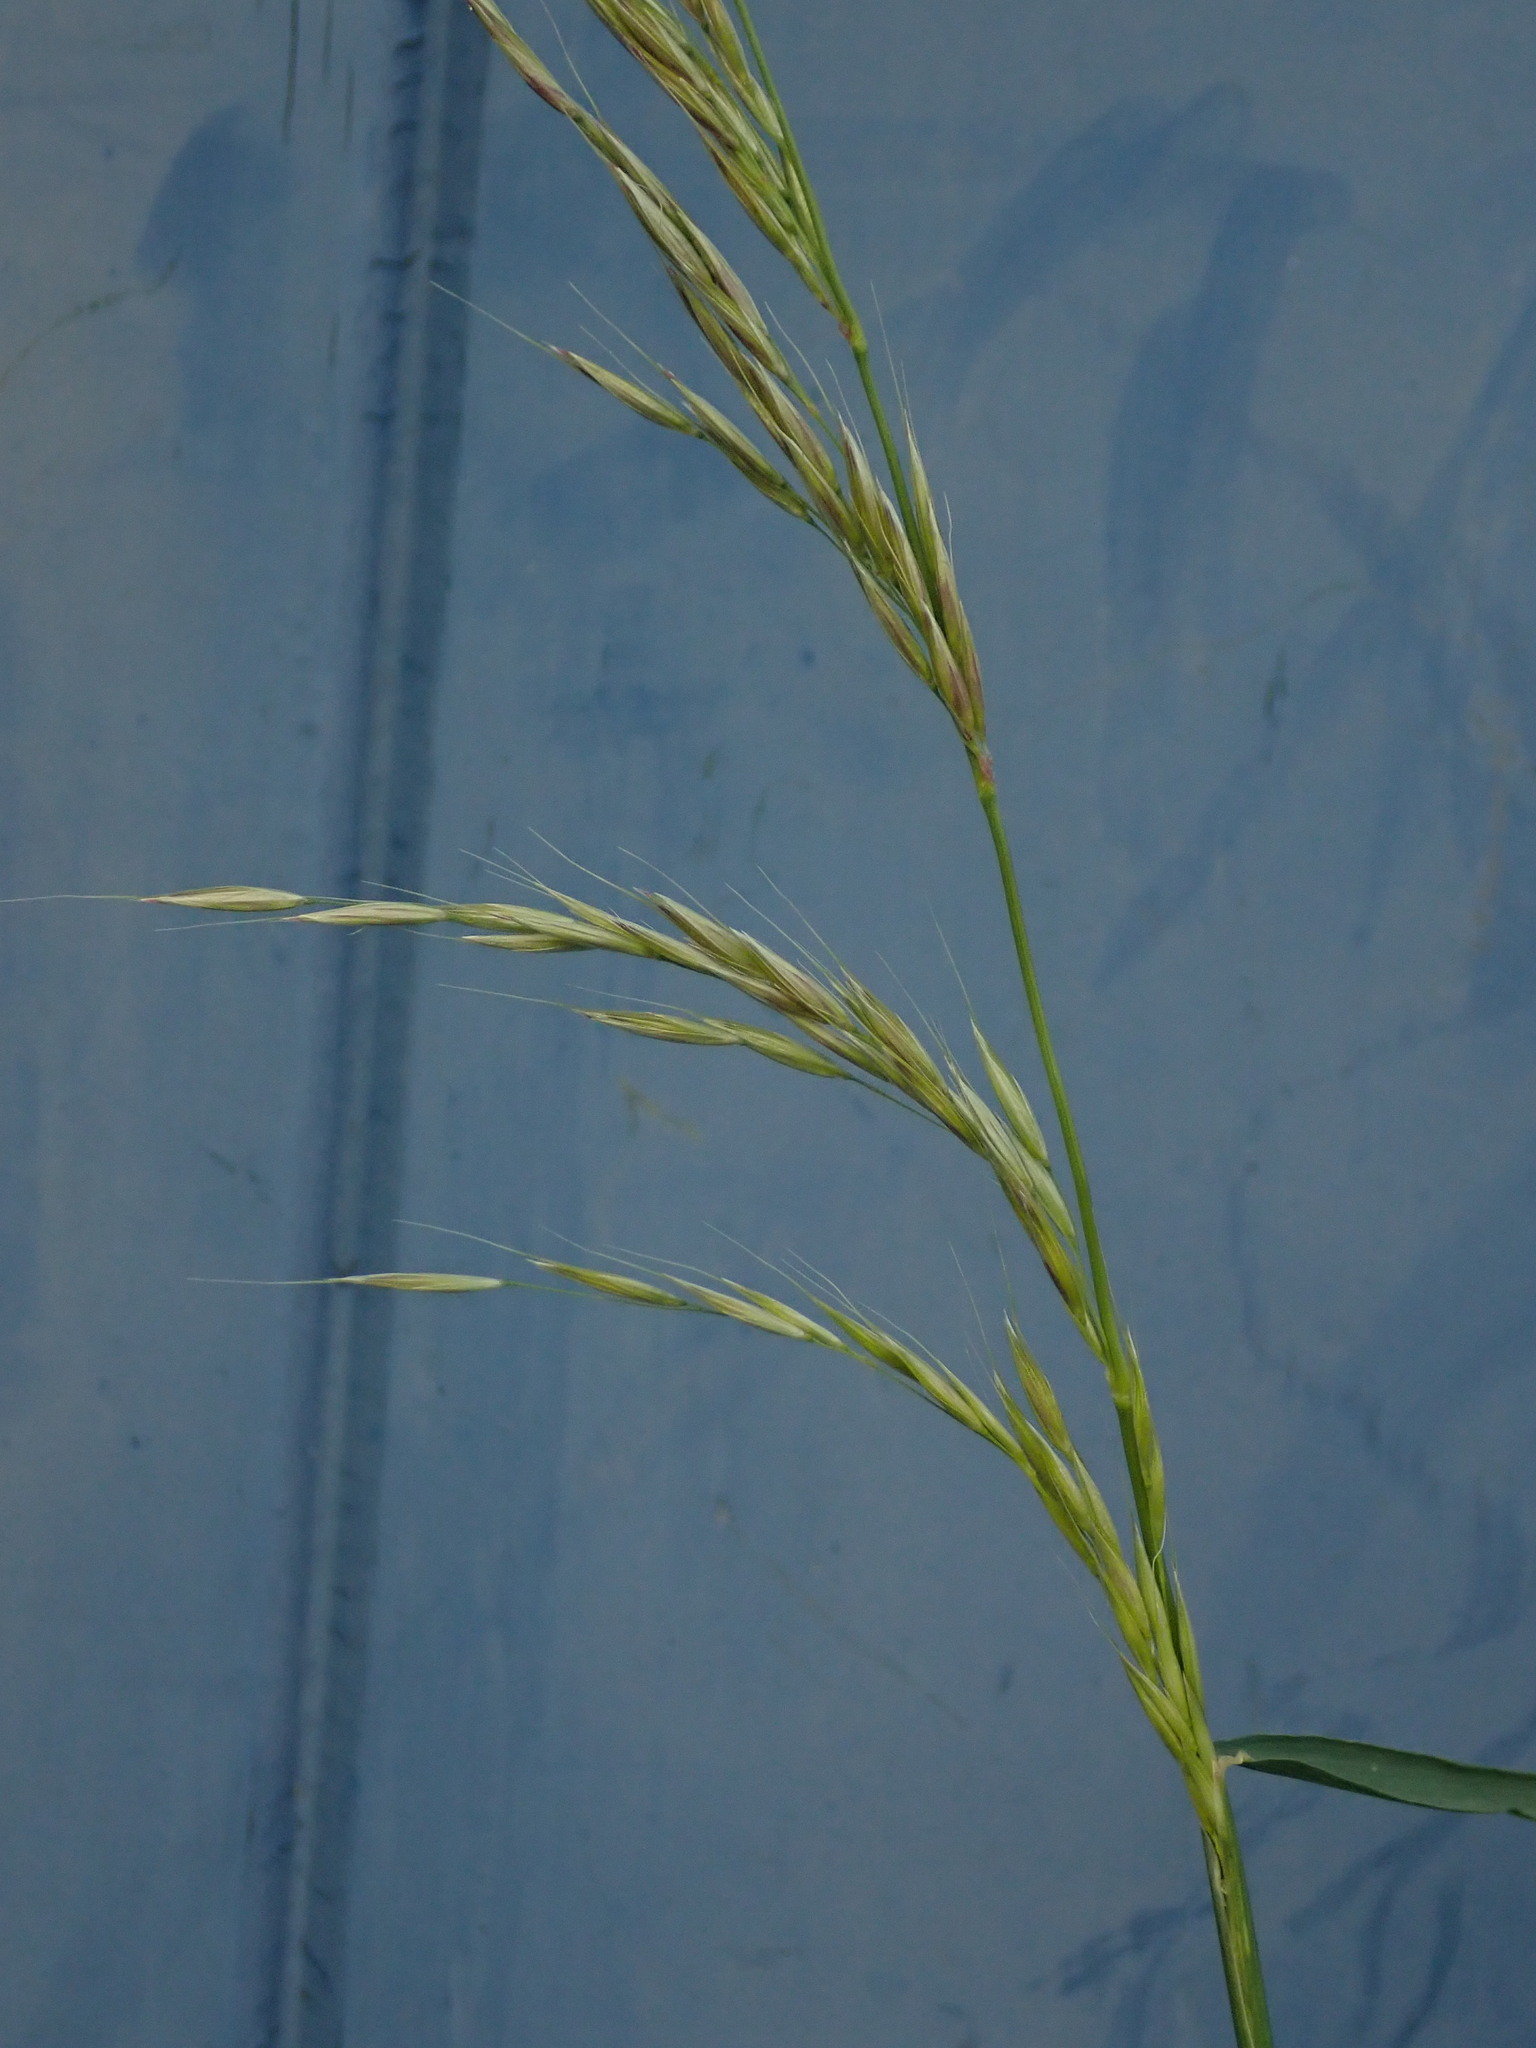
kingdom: Plantae
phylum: Tracheophyta
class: Liliopsida
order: Poales
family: Poaceae
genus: Arrhenatherum
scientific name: Arrhenatherum elatius
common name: Tall oatgrass
